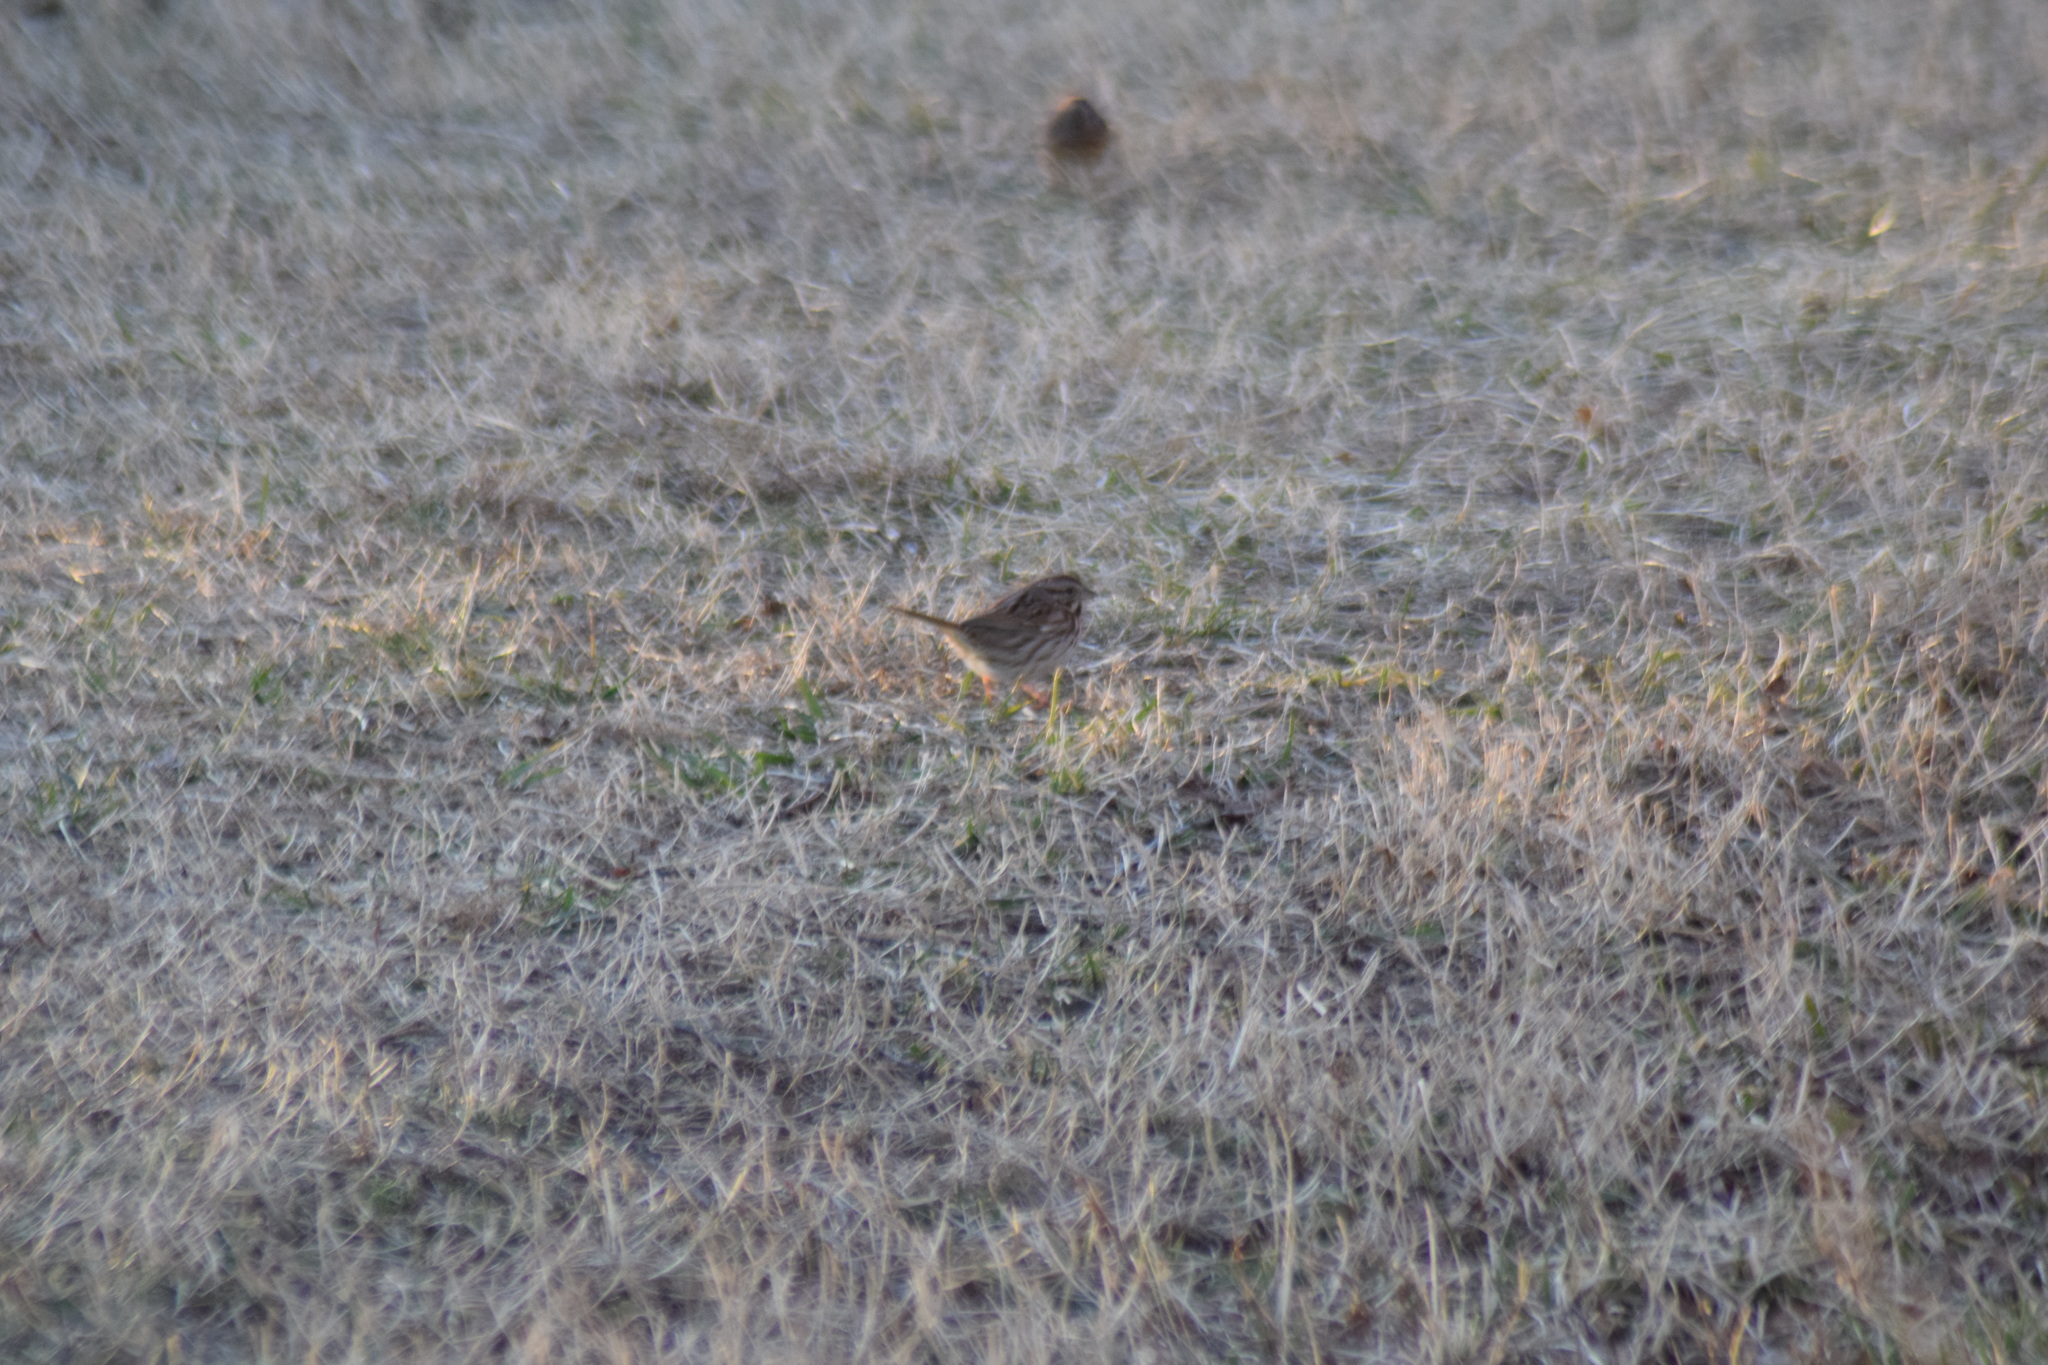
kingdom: Animalia
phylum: Chordata
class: Aves
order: Passeriformes
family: Passerellidae
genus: Melospiza
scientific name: Melospiza melodia
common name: Song sparrow
